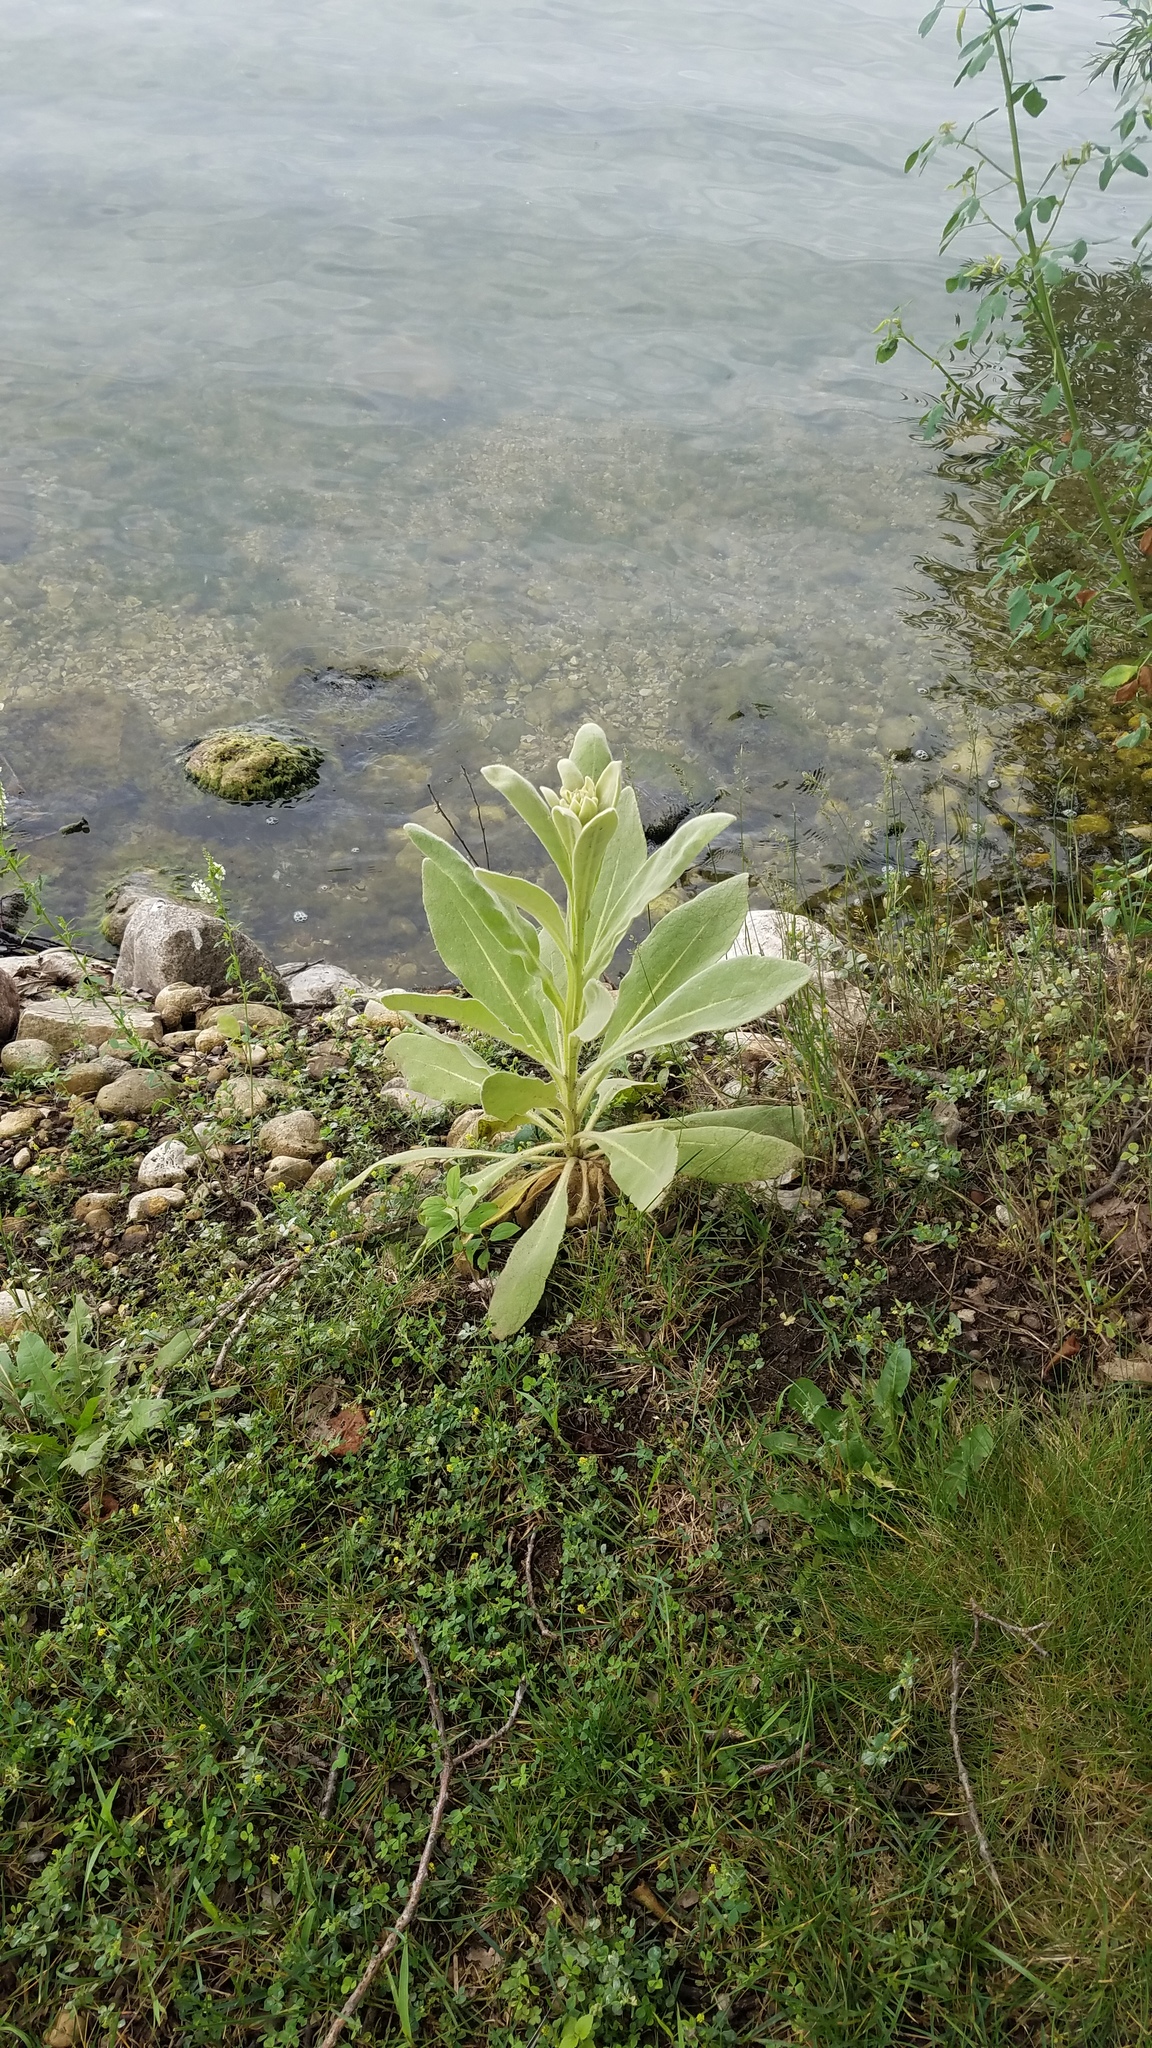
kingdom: Plantae
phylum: Tracheophyta
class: Magnoliopsida
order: Lamiales
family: Scrophulariaceae
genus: Verbascum
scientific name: Verbascum thapsus
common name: Common mullein
